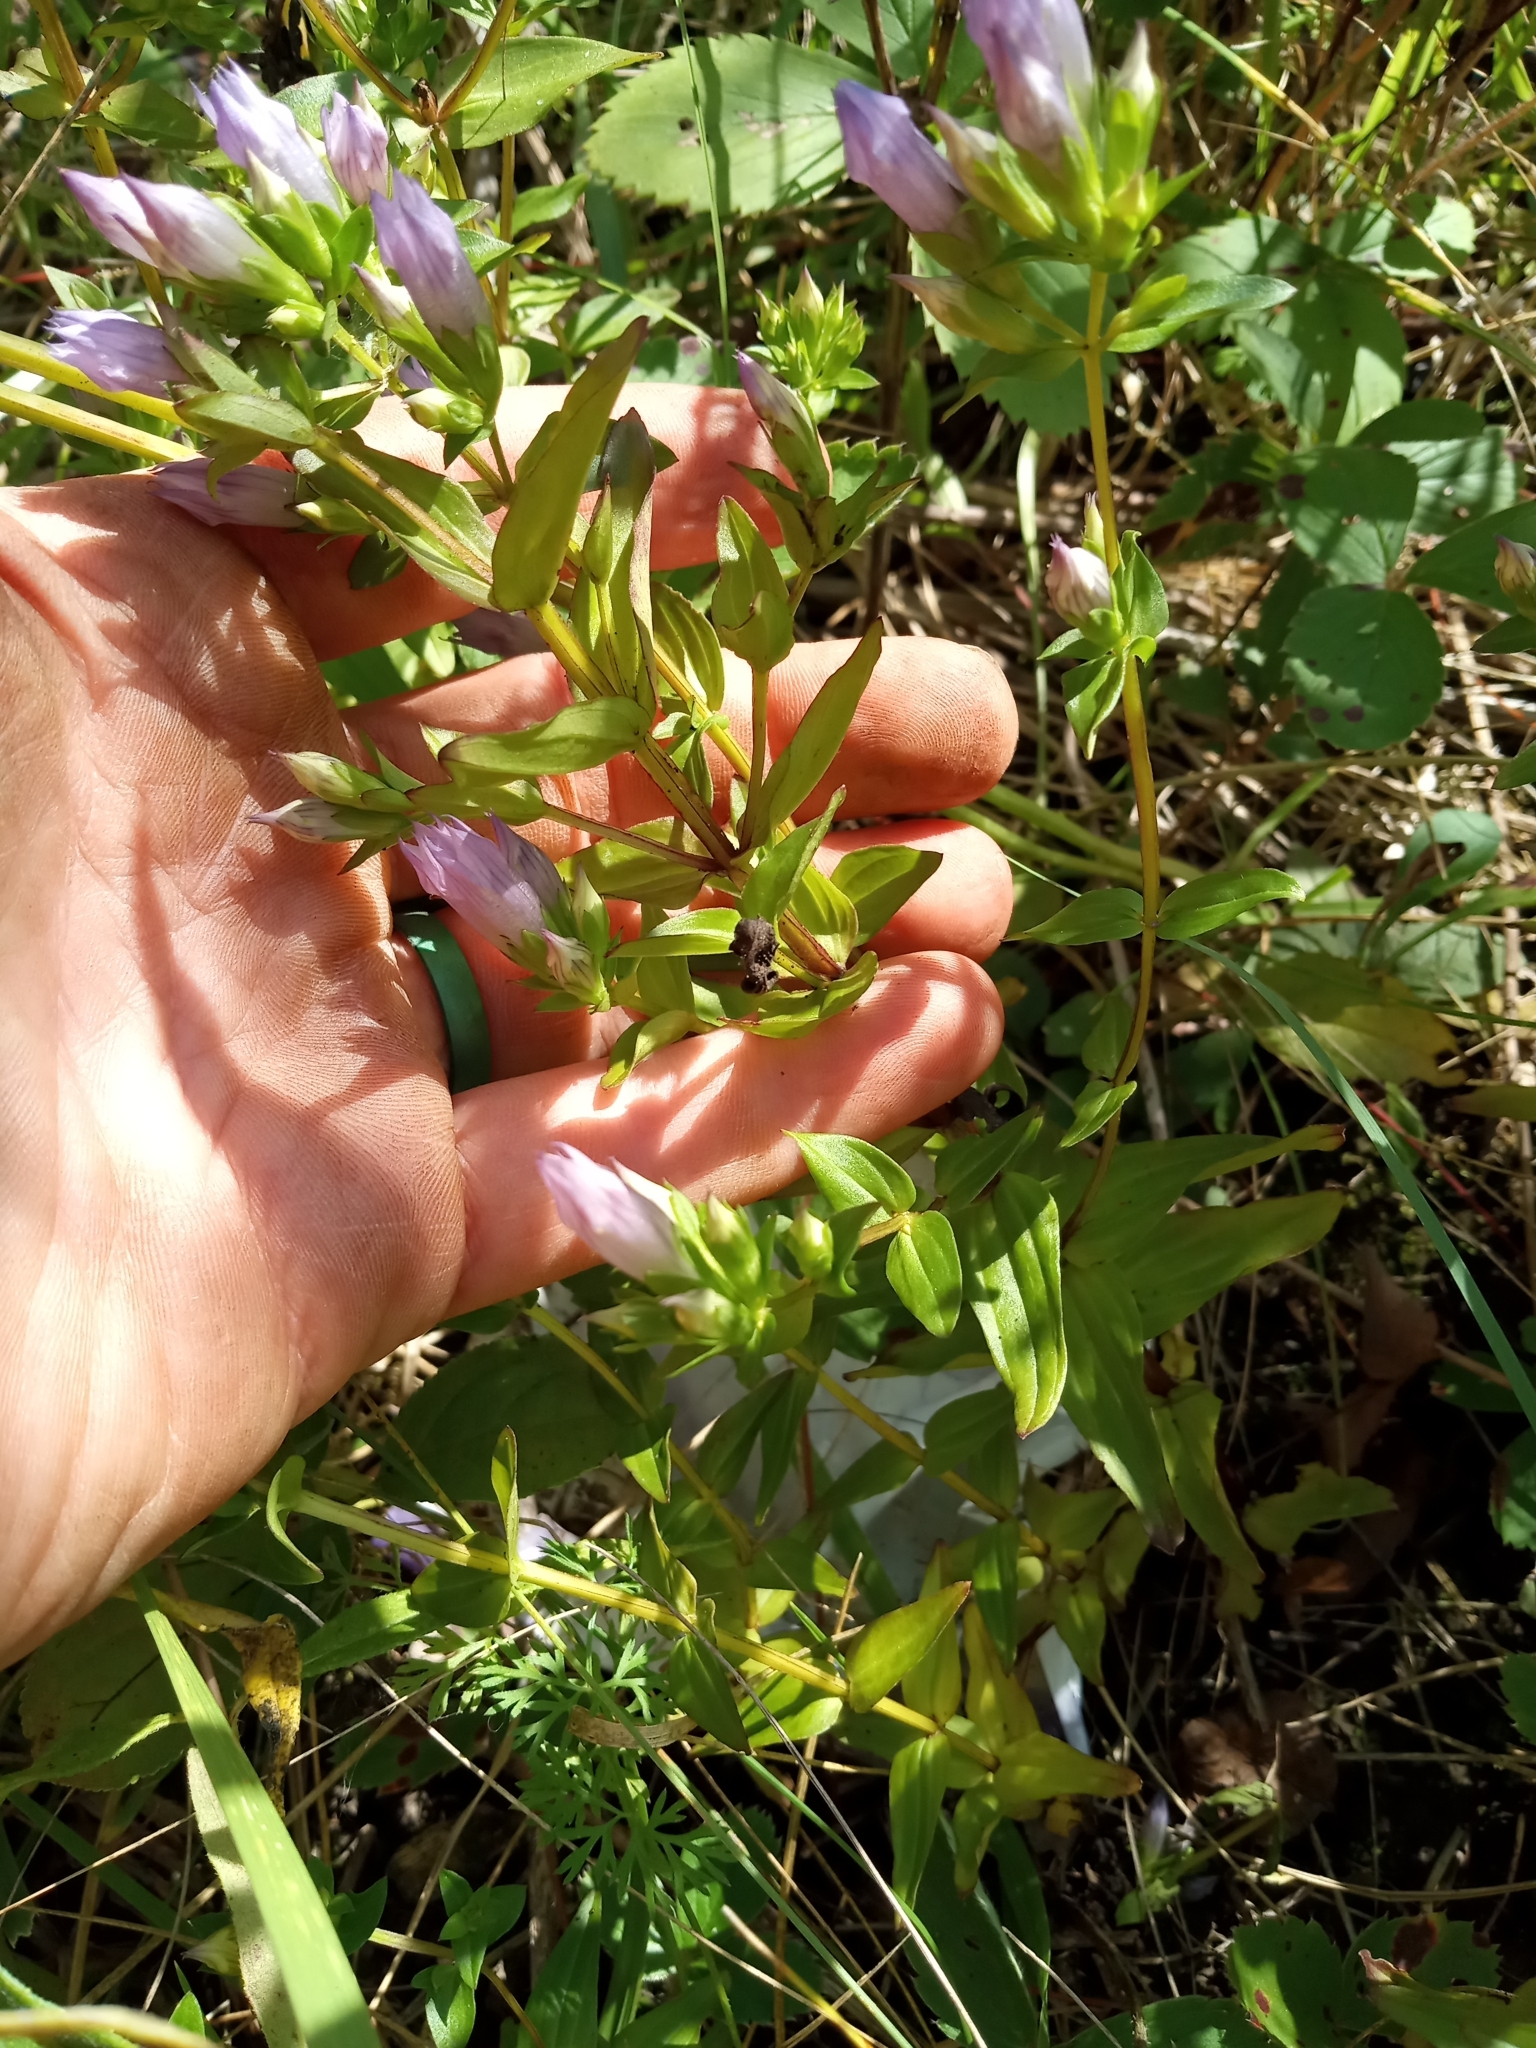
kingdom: Plantae
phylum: Tracheophyta
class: Magnoliopsida
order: Gentianales
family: Gentianaceae
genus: Gentianella
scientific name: Gentianella quinquefolia
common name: Agueweed
